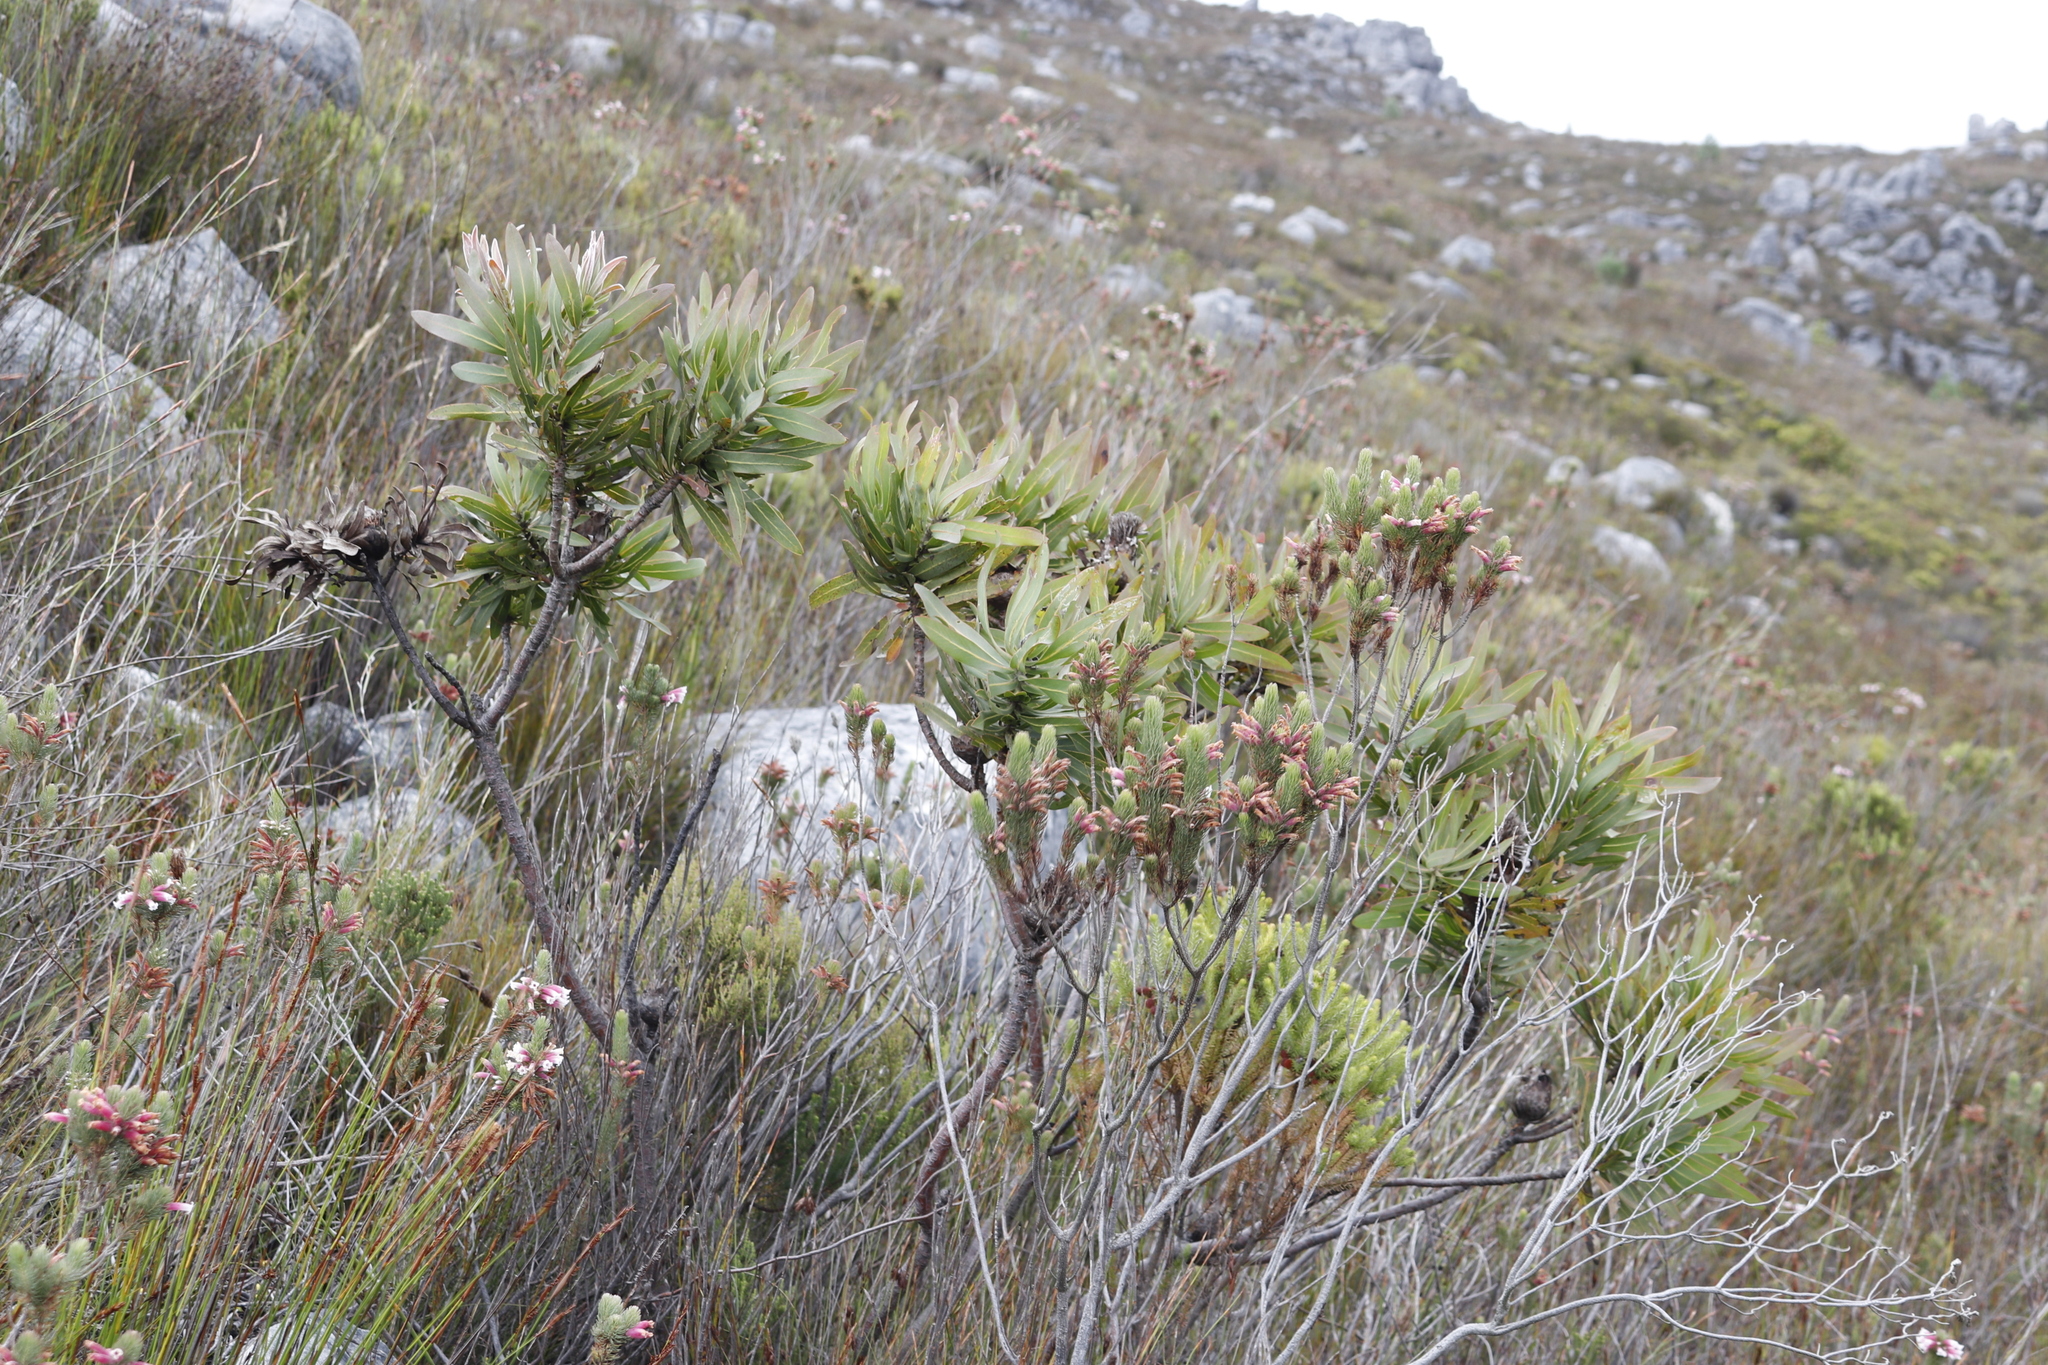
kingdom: Plantae
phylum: Tracheophyta
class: Magnoliopsida
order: Proteales
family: Proteaceae
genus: Protea
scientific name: Protea neriifolia
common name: Blue sugarbush
